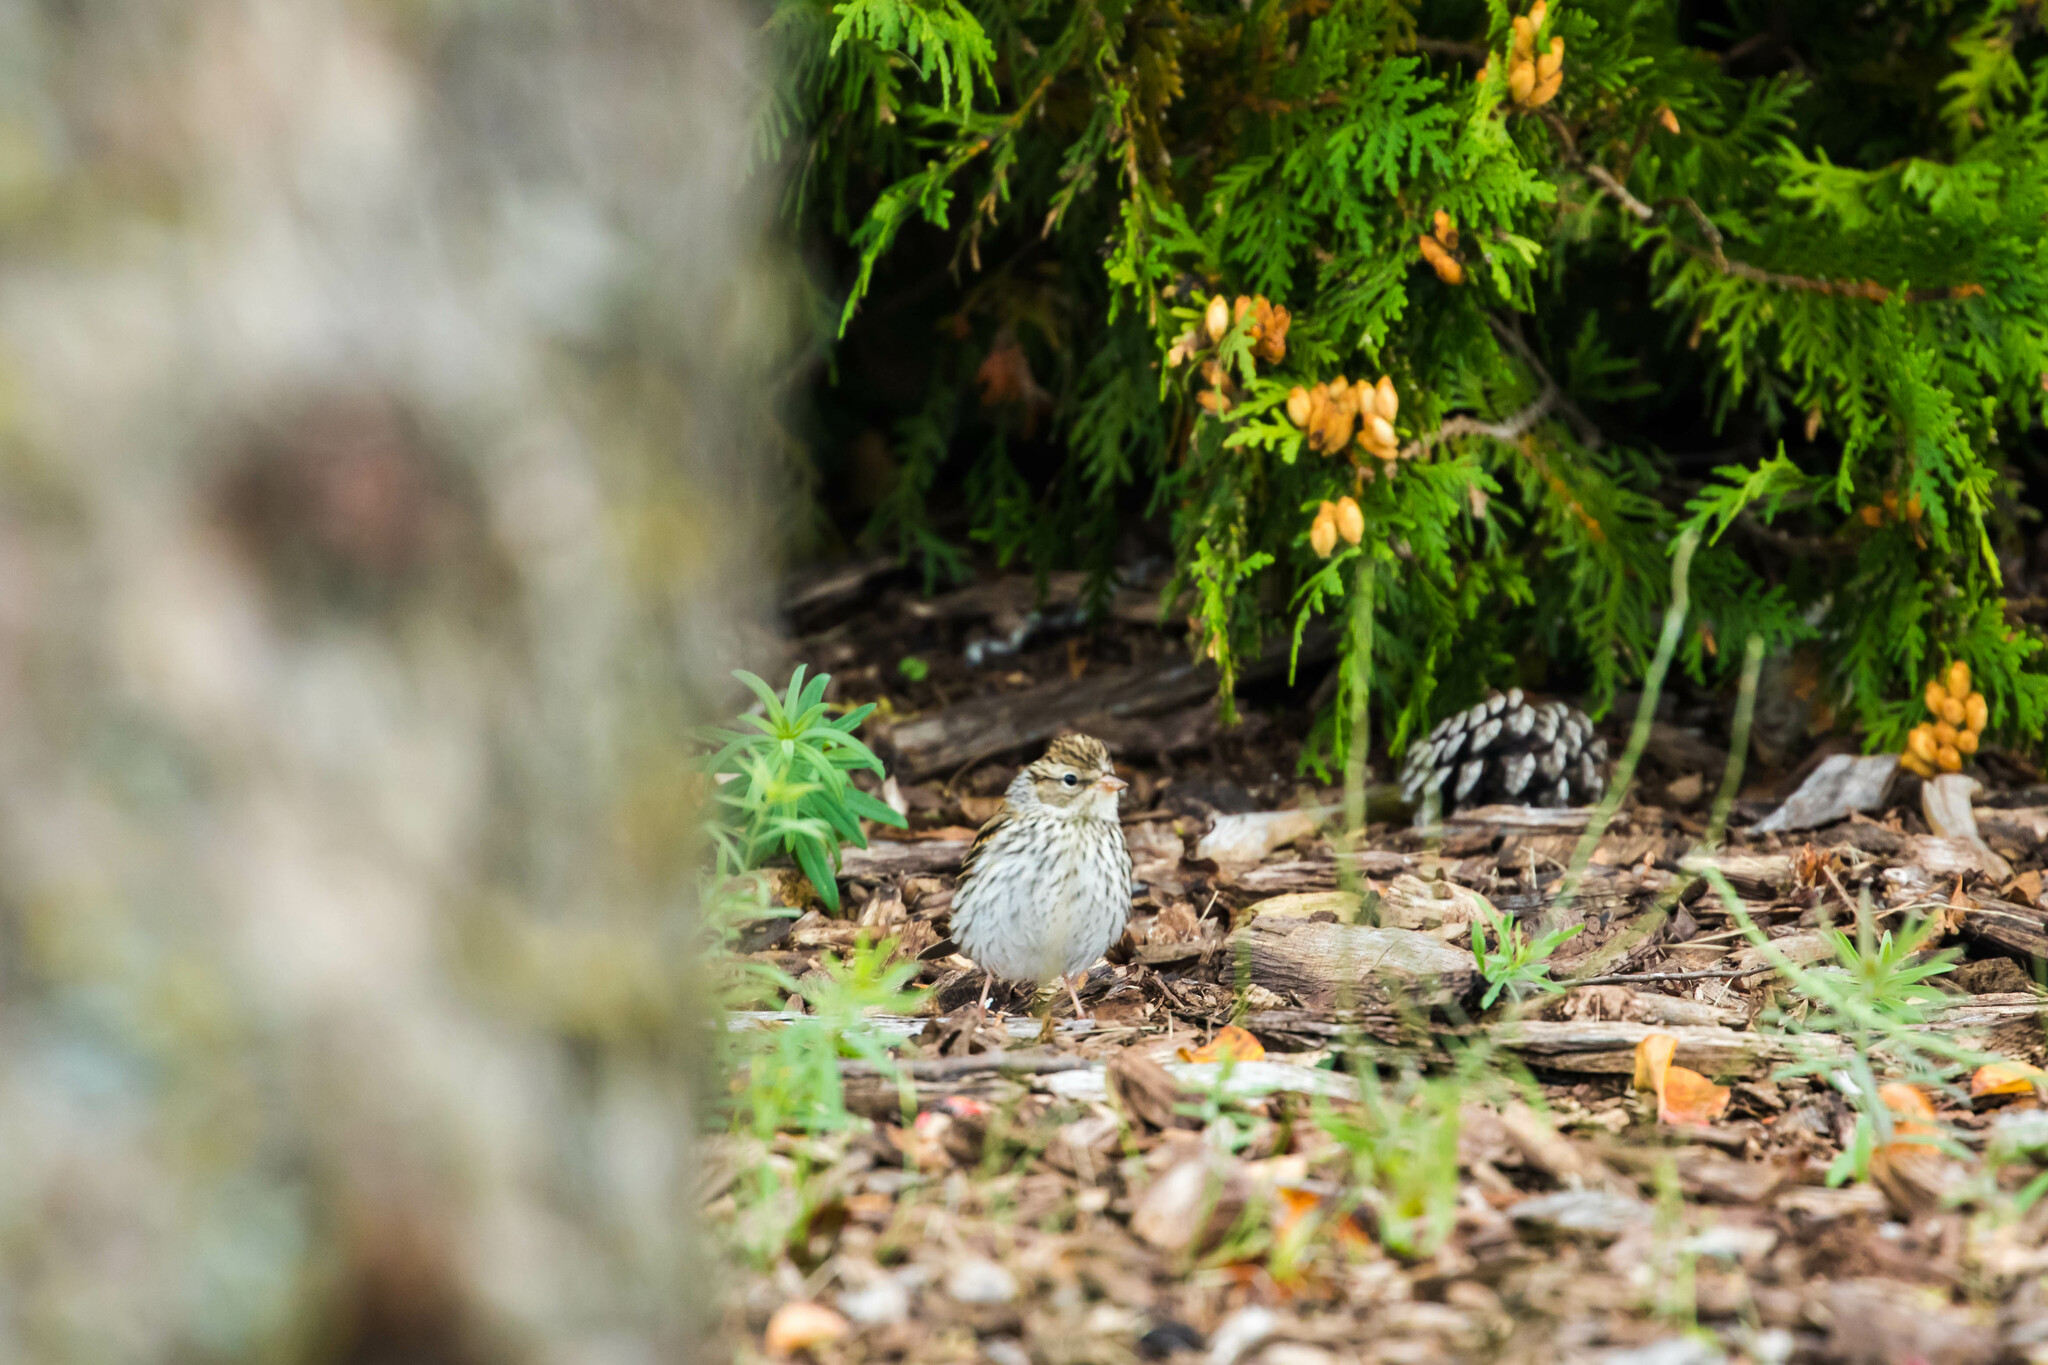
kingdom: Animalia
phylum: Chordata
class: Aves
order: Passeriformes
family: Passerellidae
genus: Spizella
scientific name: Spizella passerina
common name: Chipping sparrow
